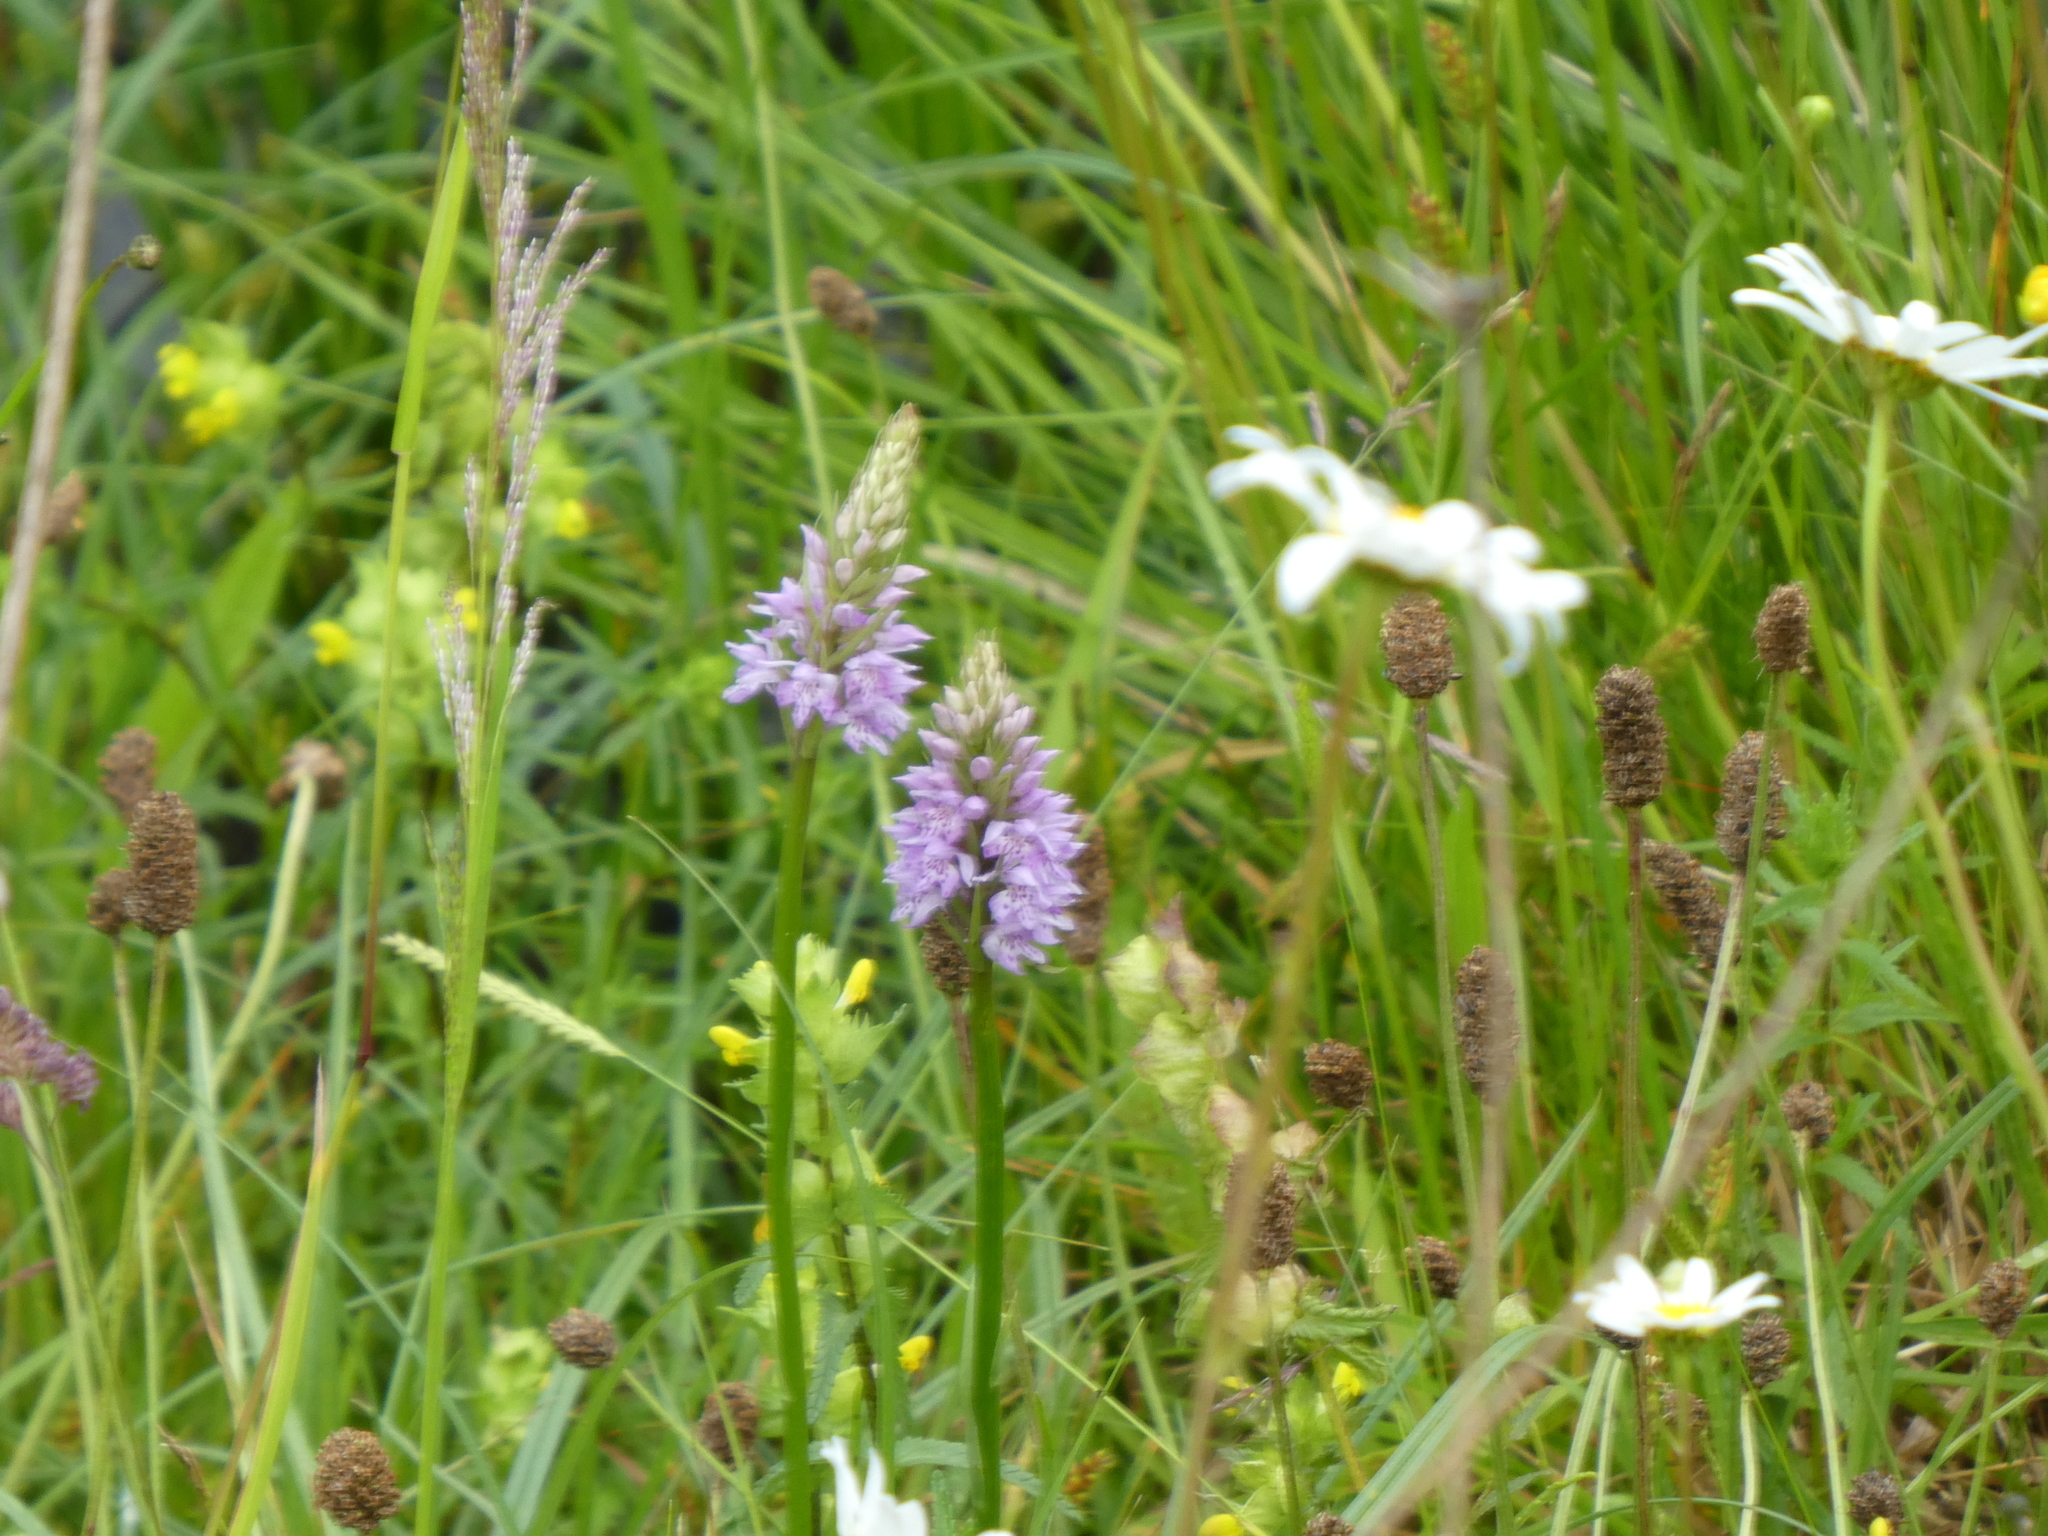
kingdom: Plantae
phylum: Tracheophyta
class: Liliopsida
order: Asparagales
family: Orchidaceae
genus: Dactylorhiza
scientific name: Dactylorhiza maculata
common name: Heath spotted-orchid
